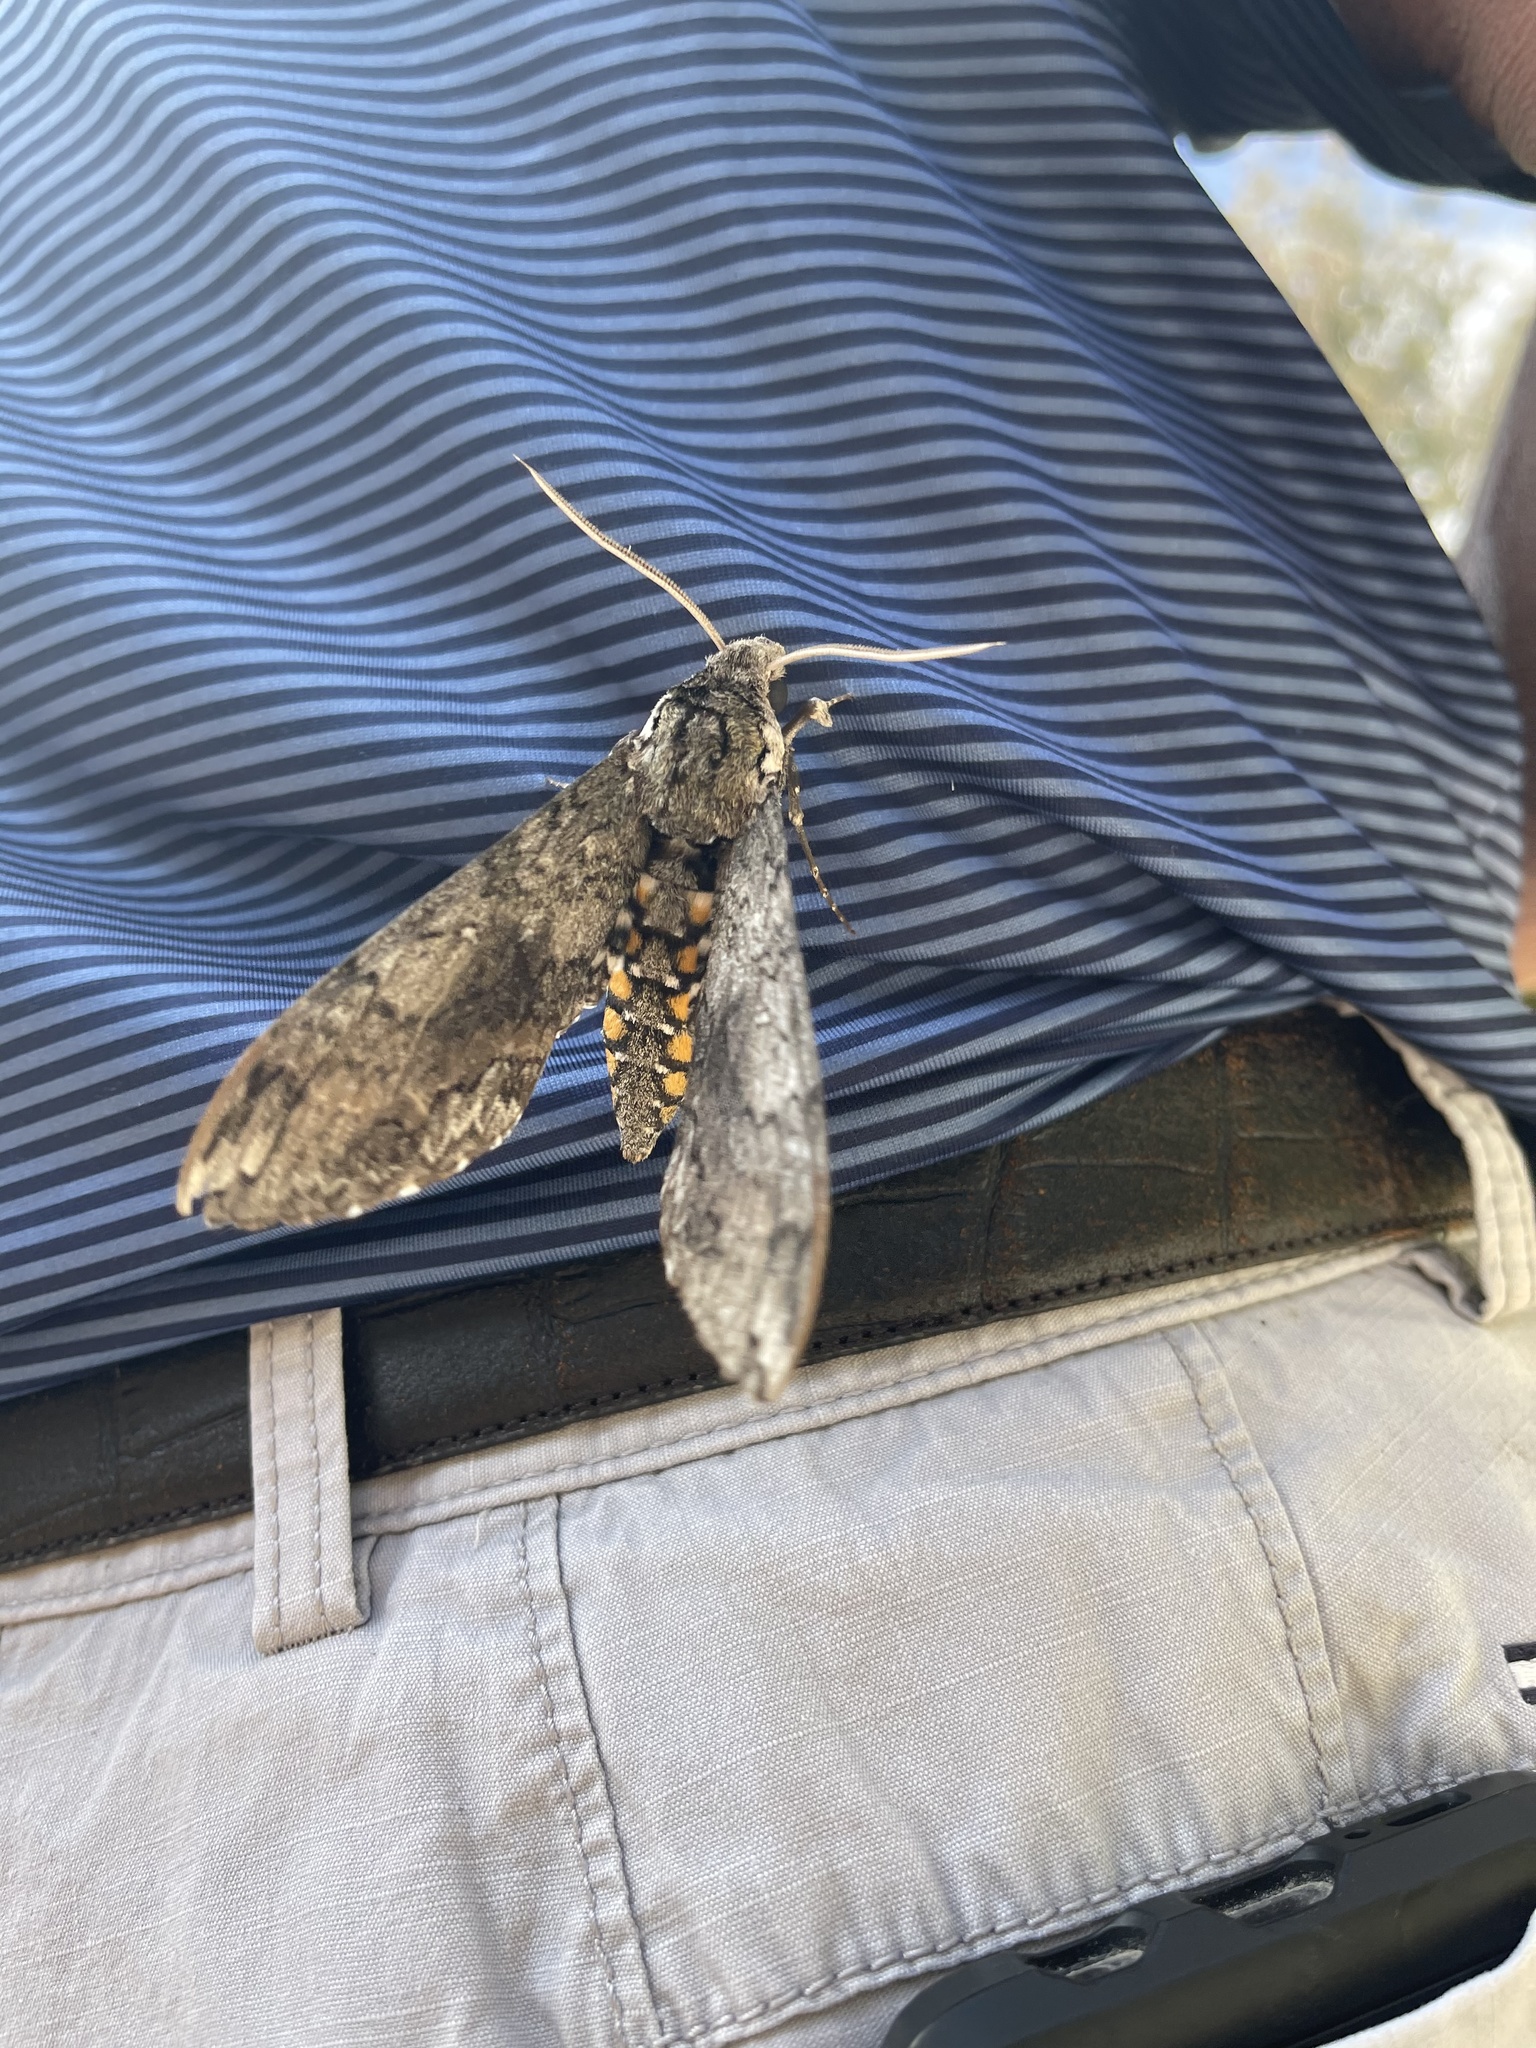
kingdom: Animalia
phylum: Arthropoda
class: Insecta
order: Lepidoptera
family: Sphingidae
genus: Manduca
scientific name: Manduca sexta
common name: Carolina sphinx
